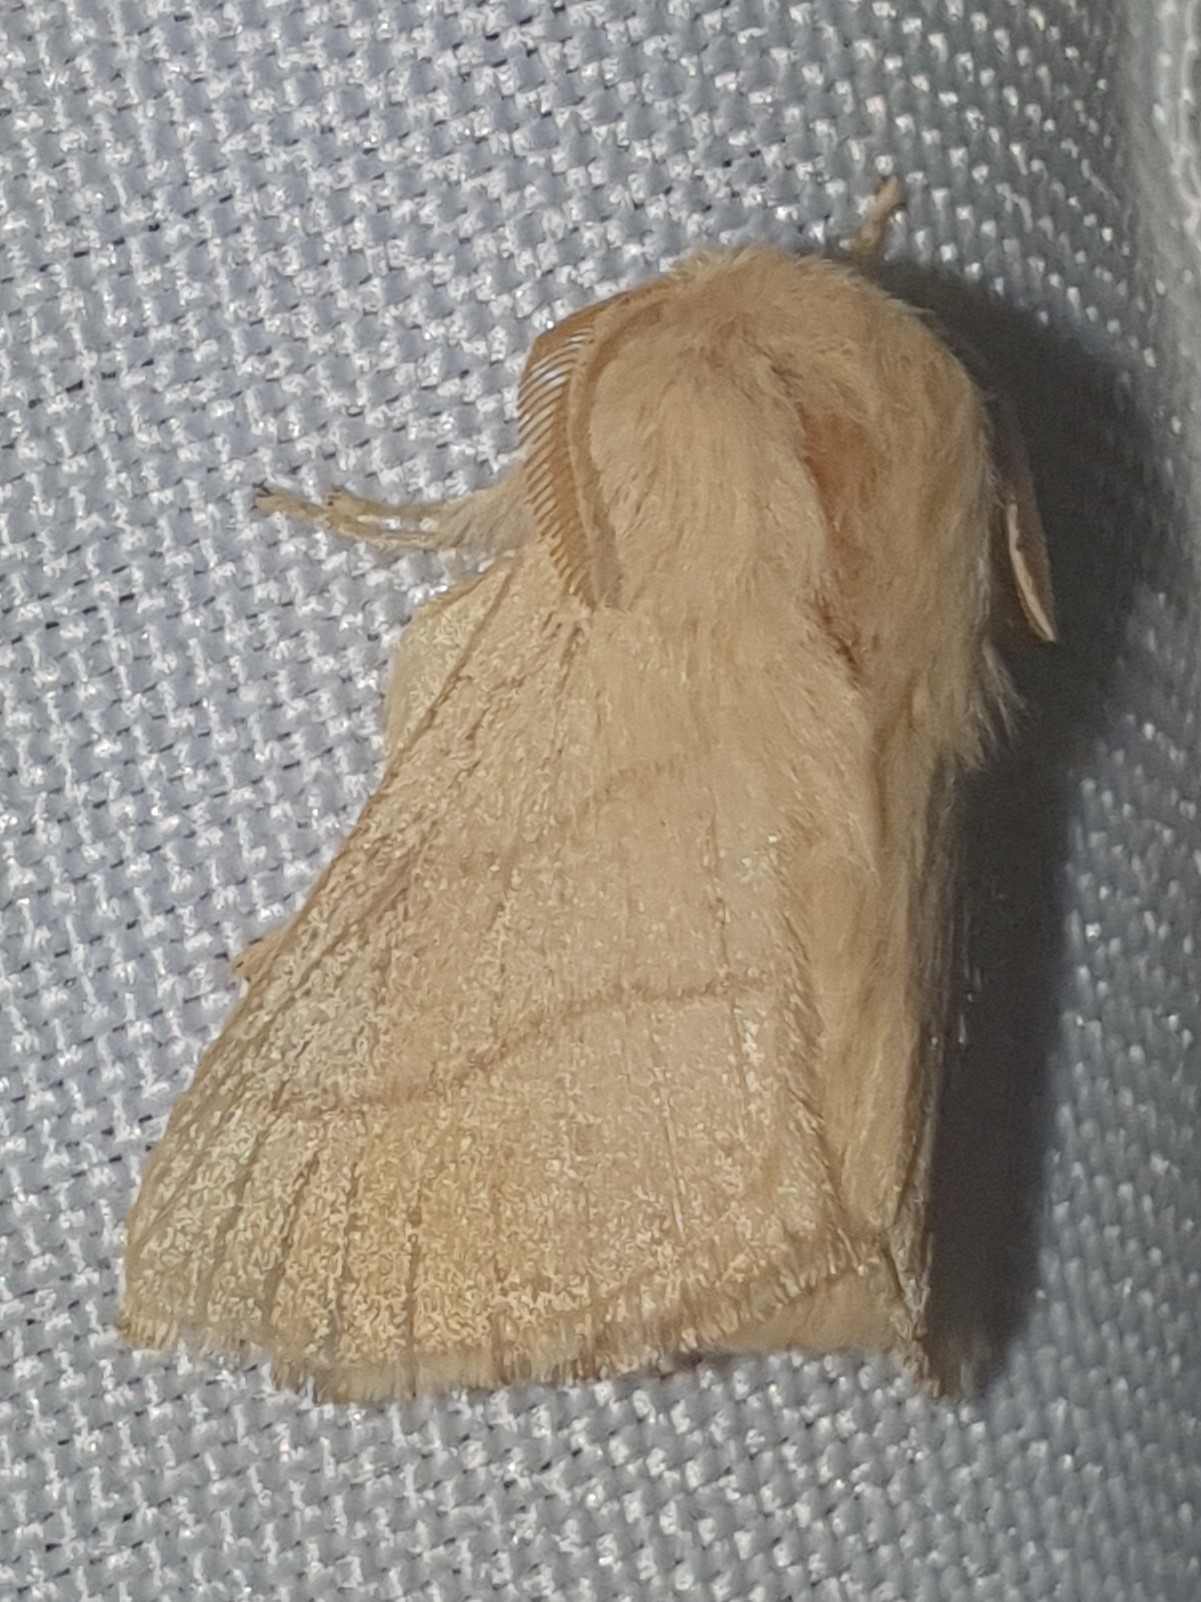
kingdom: Animalia
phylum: Arthropoda
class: Insecta
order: Lepidoptera
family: Lasiocampidae
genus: Malacosoma
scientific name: Malacosoma neustria
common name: The lackey
